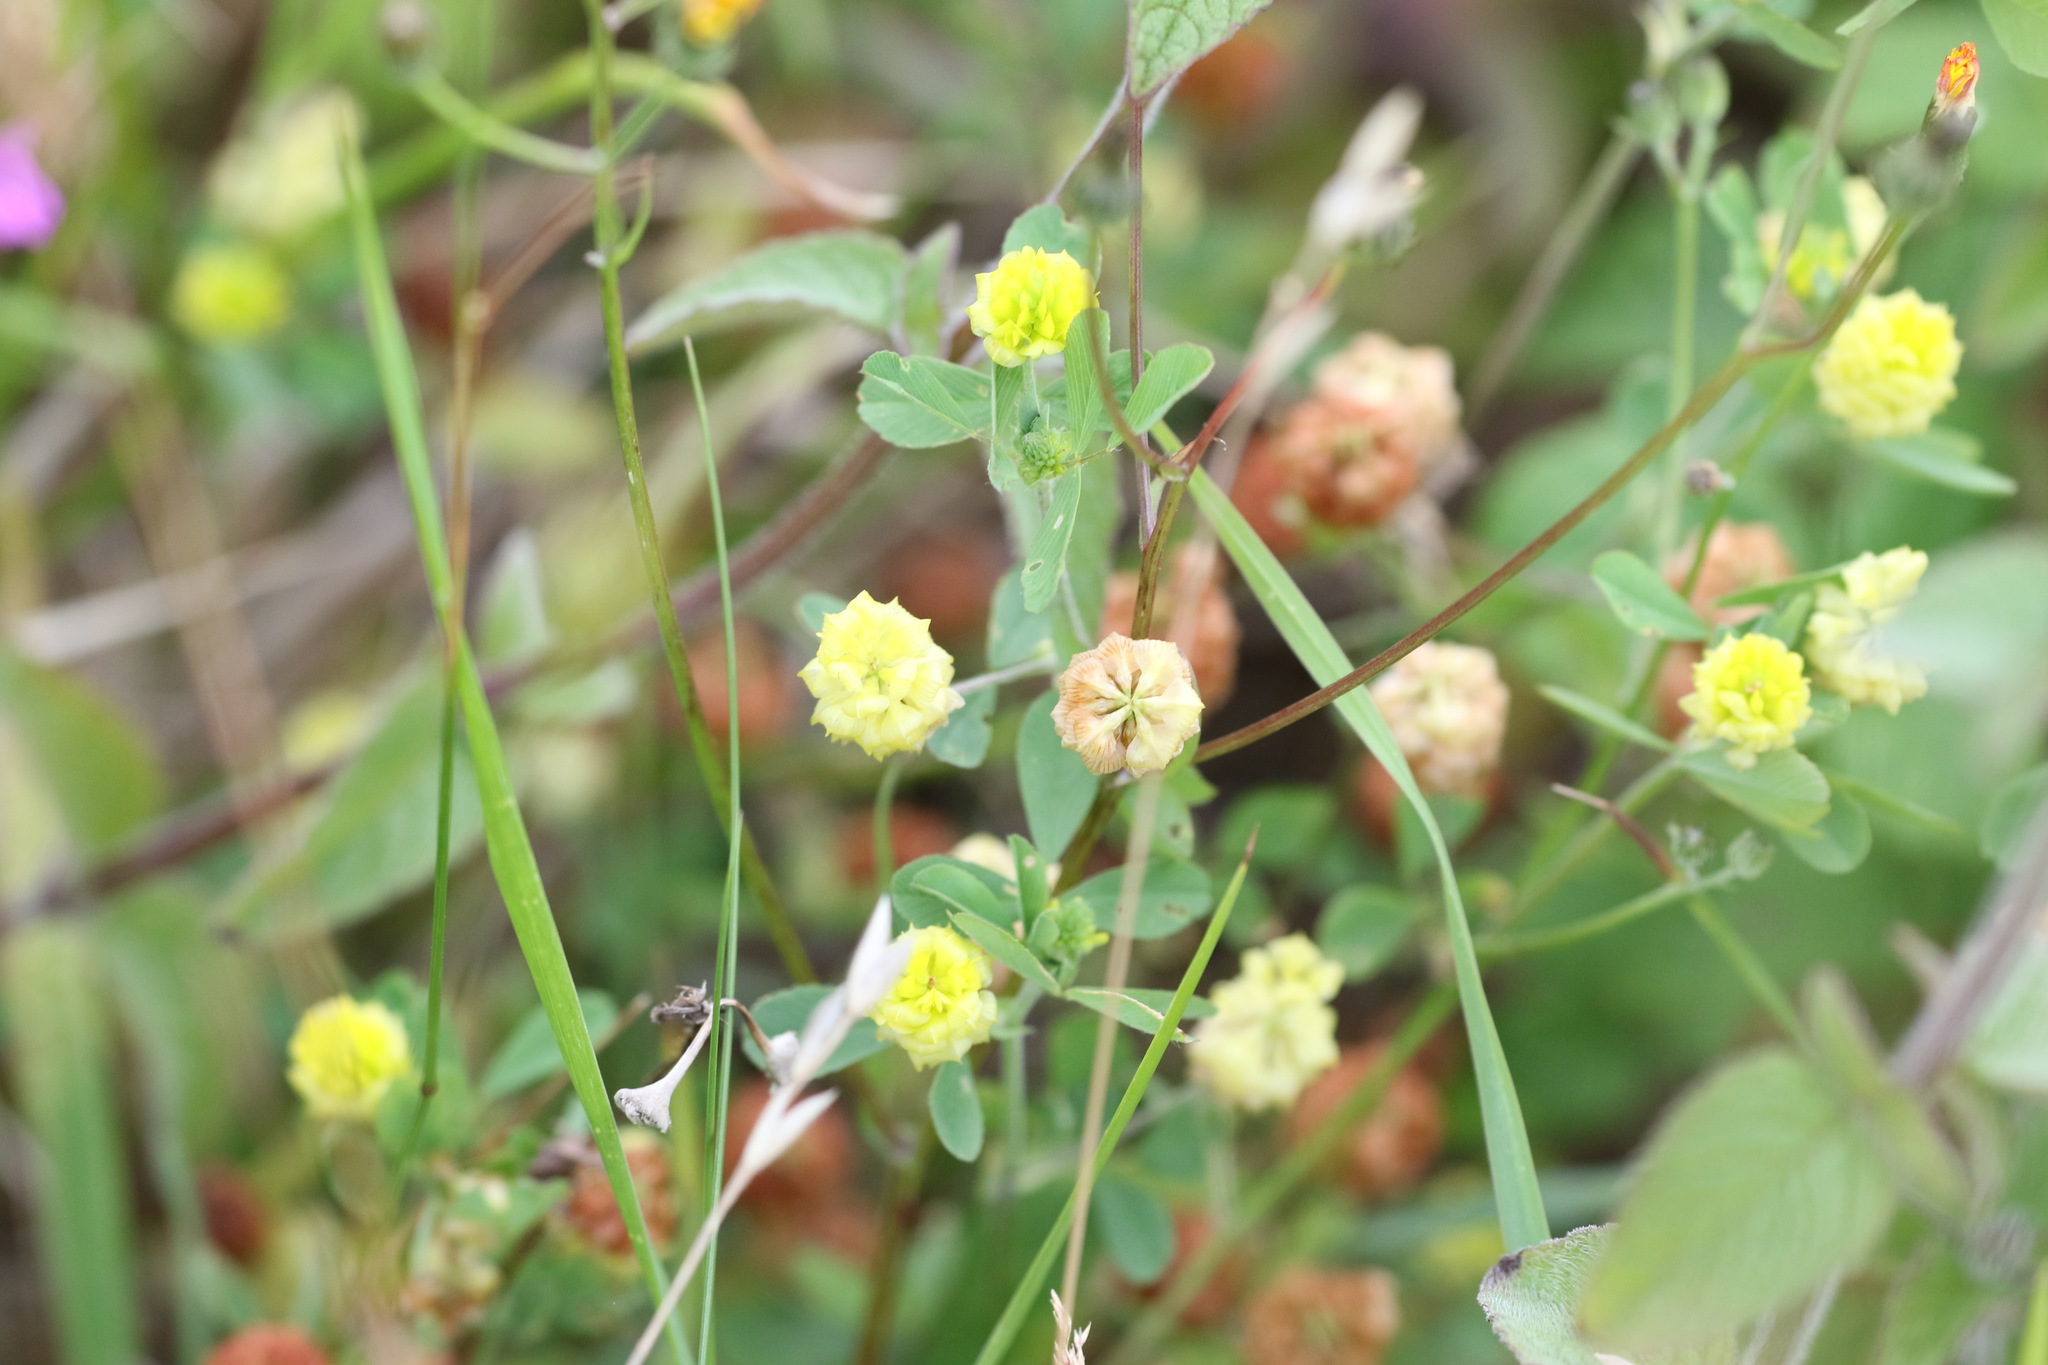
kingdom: Plantae
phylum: Tracheophyta
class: Magnoliopsida
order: Fabales
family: Fabaceae
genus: Trifolium
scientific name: Trifolium campestre
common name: Field clover
